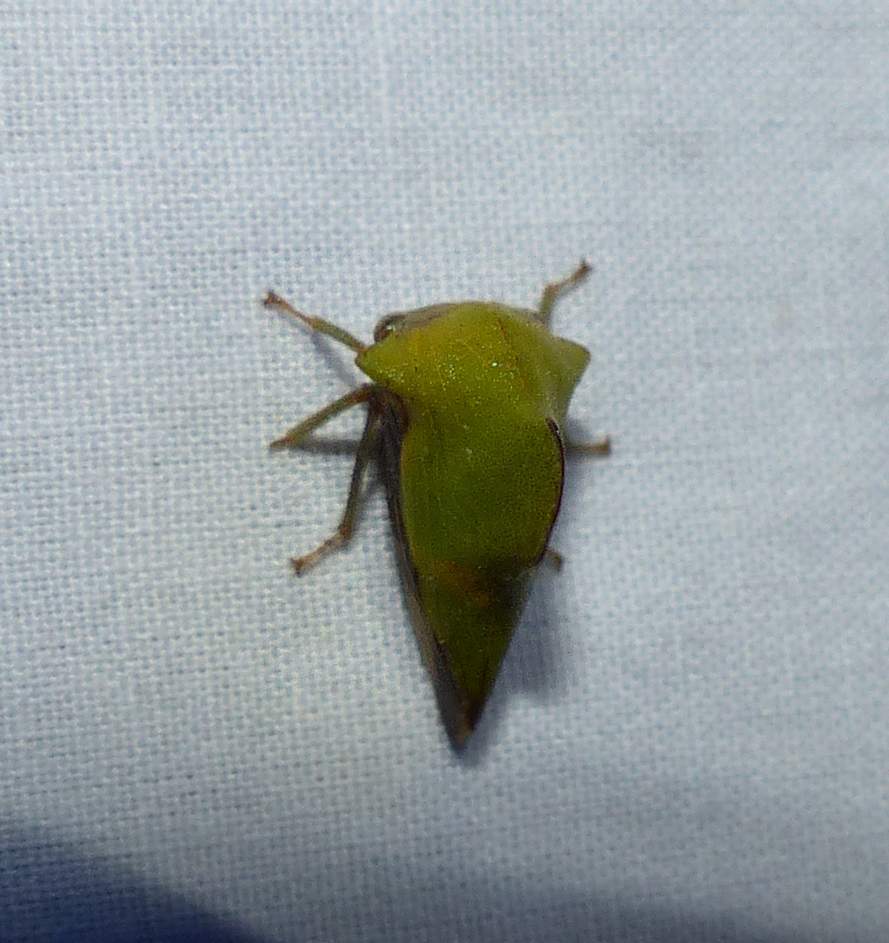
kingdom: Animalia
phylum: Arthropoda
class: Insecta
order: Hemiptera
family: Membracidae
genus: Helonica
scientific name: Helonica excelsa
